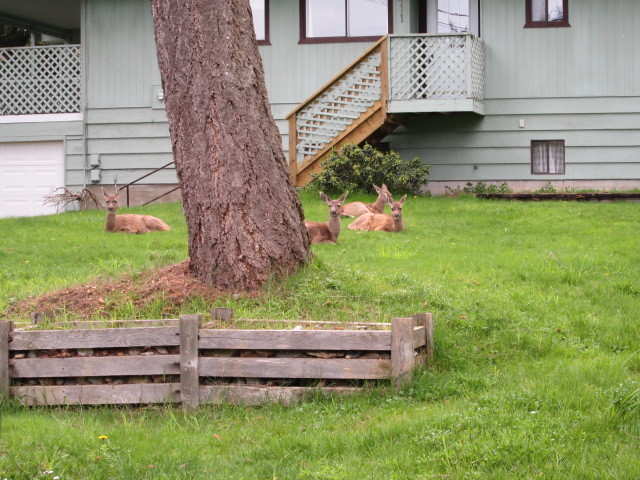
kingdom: Animalia
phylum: Chordata
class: Mammalia
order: Artiodactyla
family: Cervidae
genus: Odocoileus
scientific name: Odocoileus hemionus
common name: Mule deer
